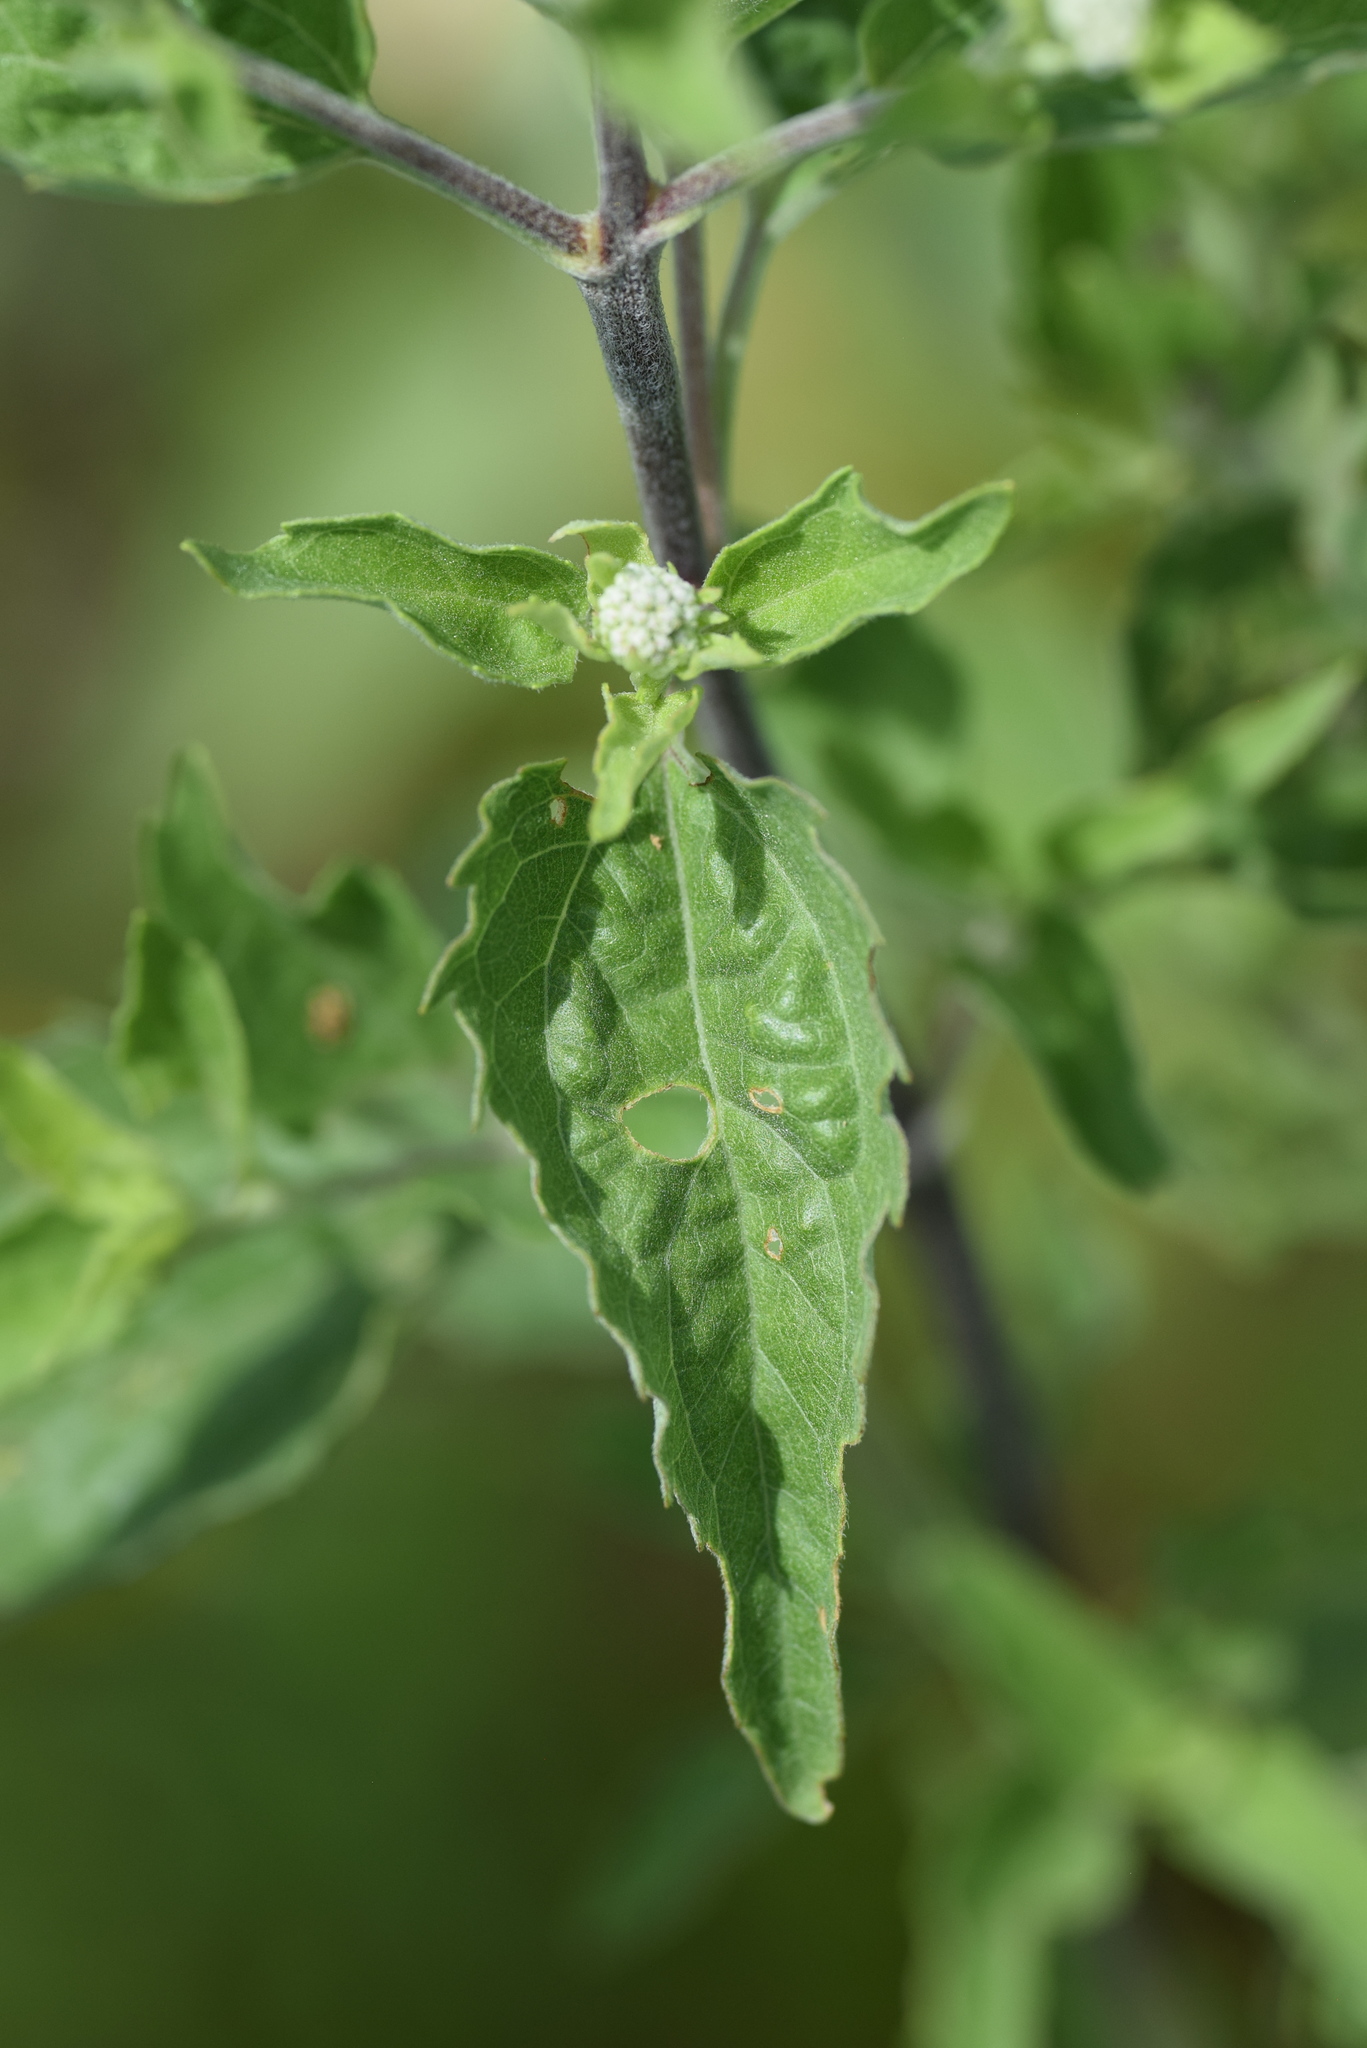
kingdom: Plantae
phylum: Tracheophyta
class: Magnoliopsida
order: Asterales
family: Asteraceae
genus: Eupatorium
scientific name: Eupatorium serotinum
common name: Late boneset
